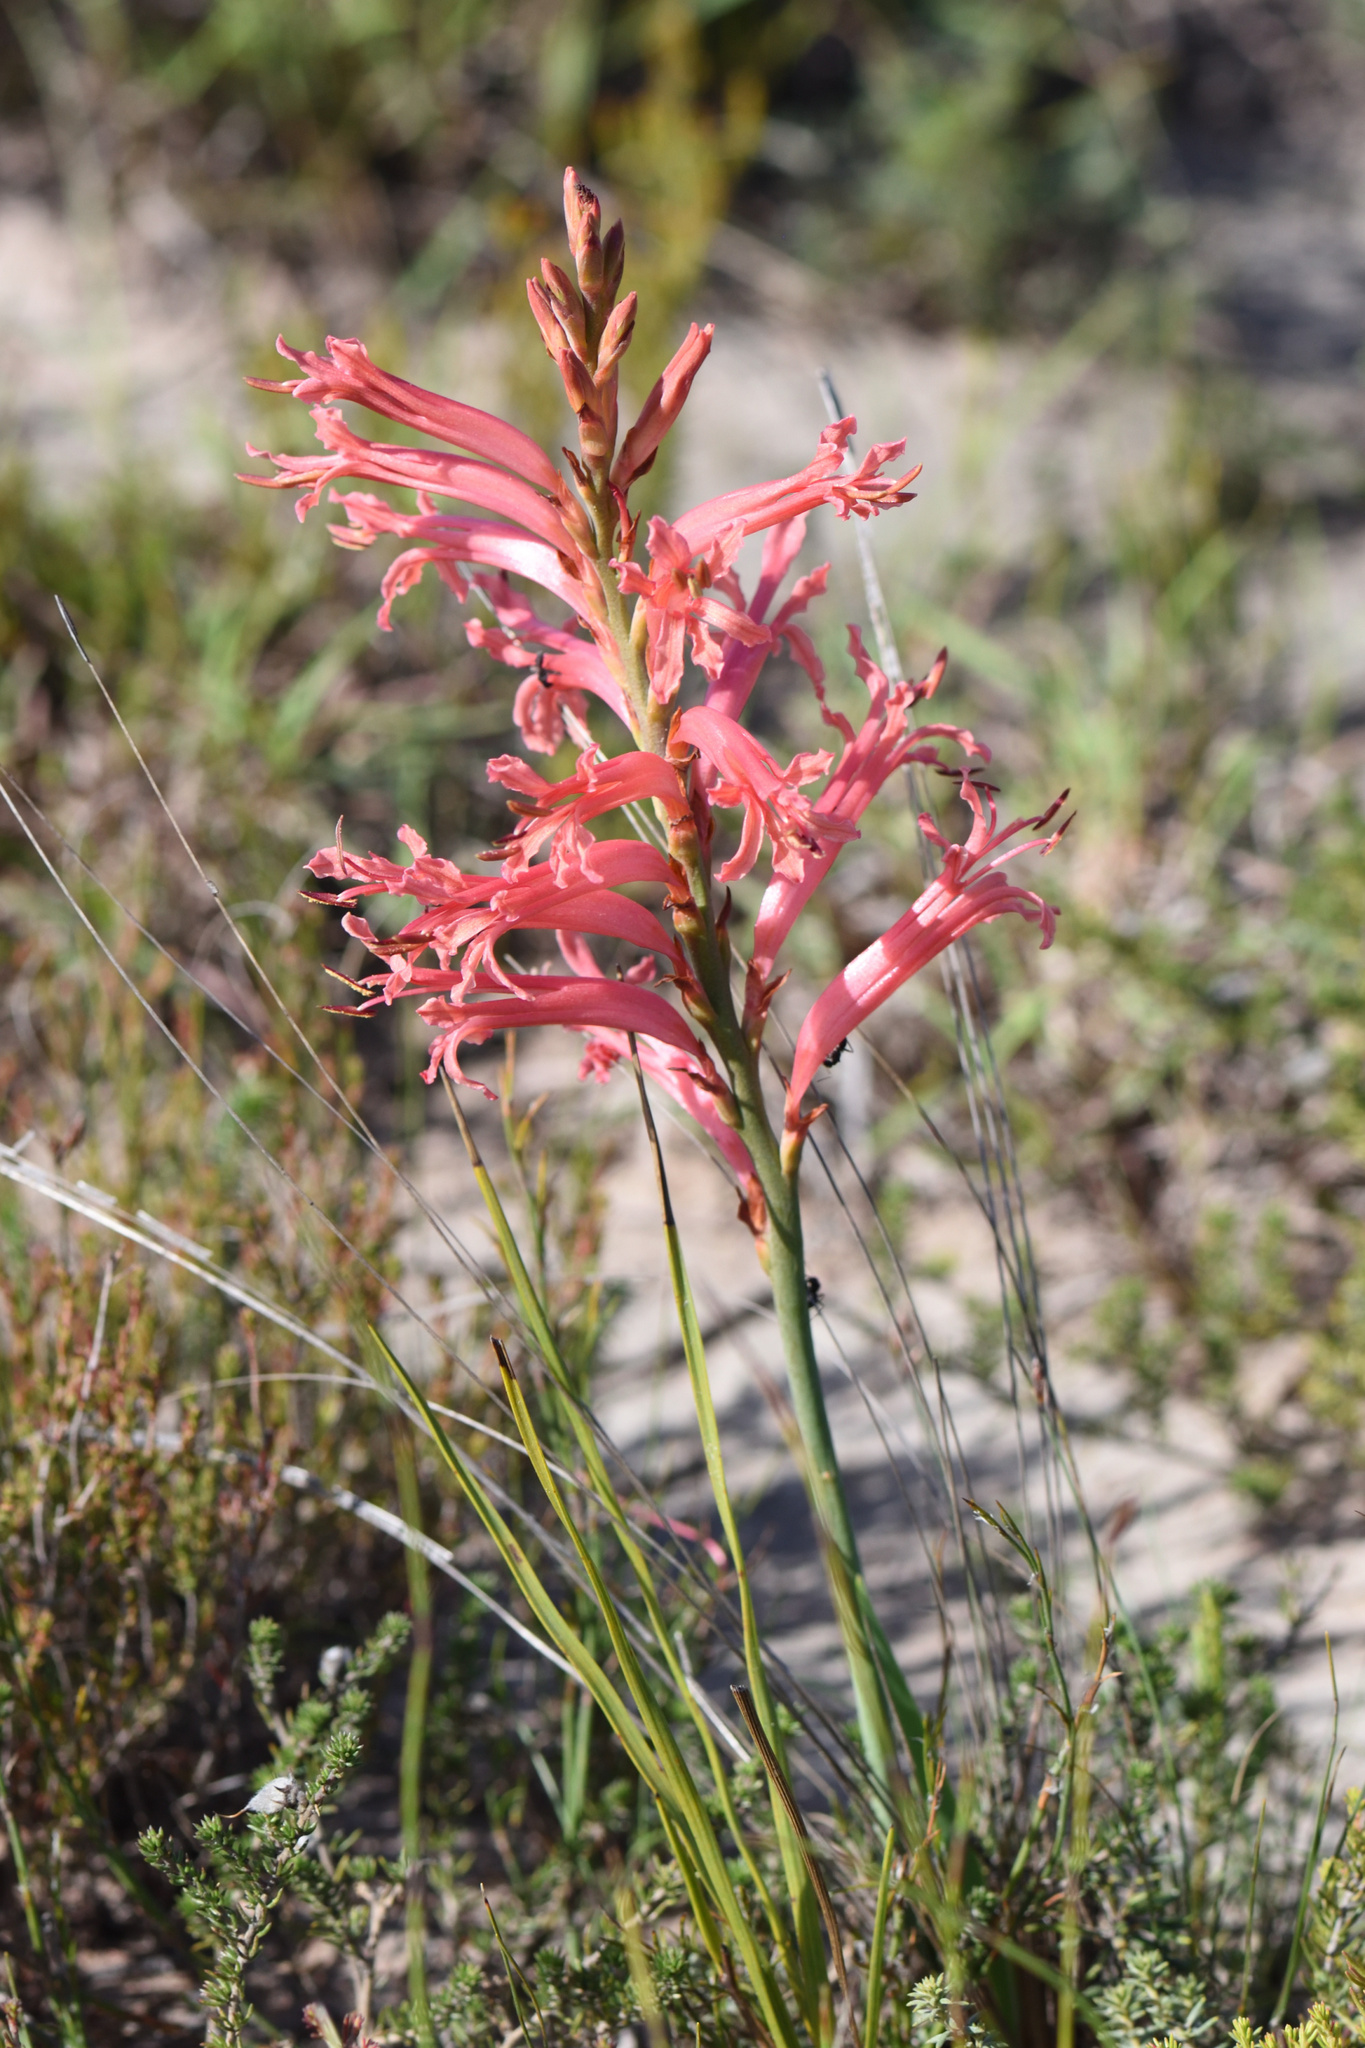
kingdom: Plantae
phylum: Tracheophyta
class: Liliopsida
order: Asparagales
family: Iridaceae
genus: Tritoniopsis
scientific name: Tritoniopsis antholyza
